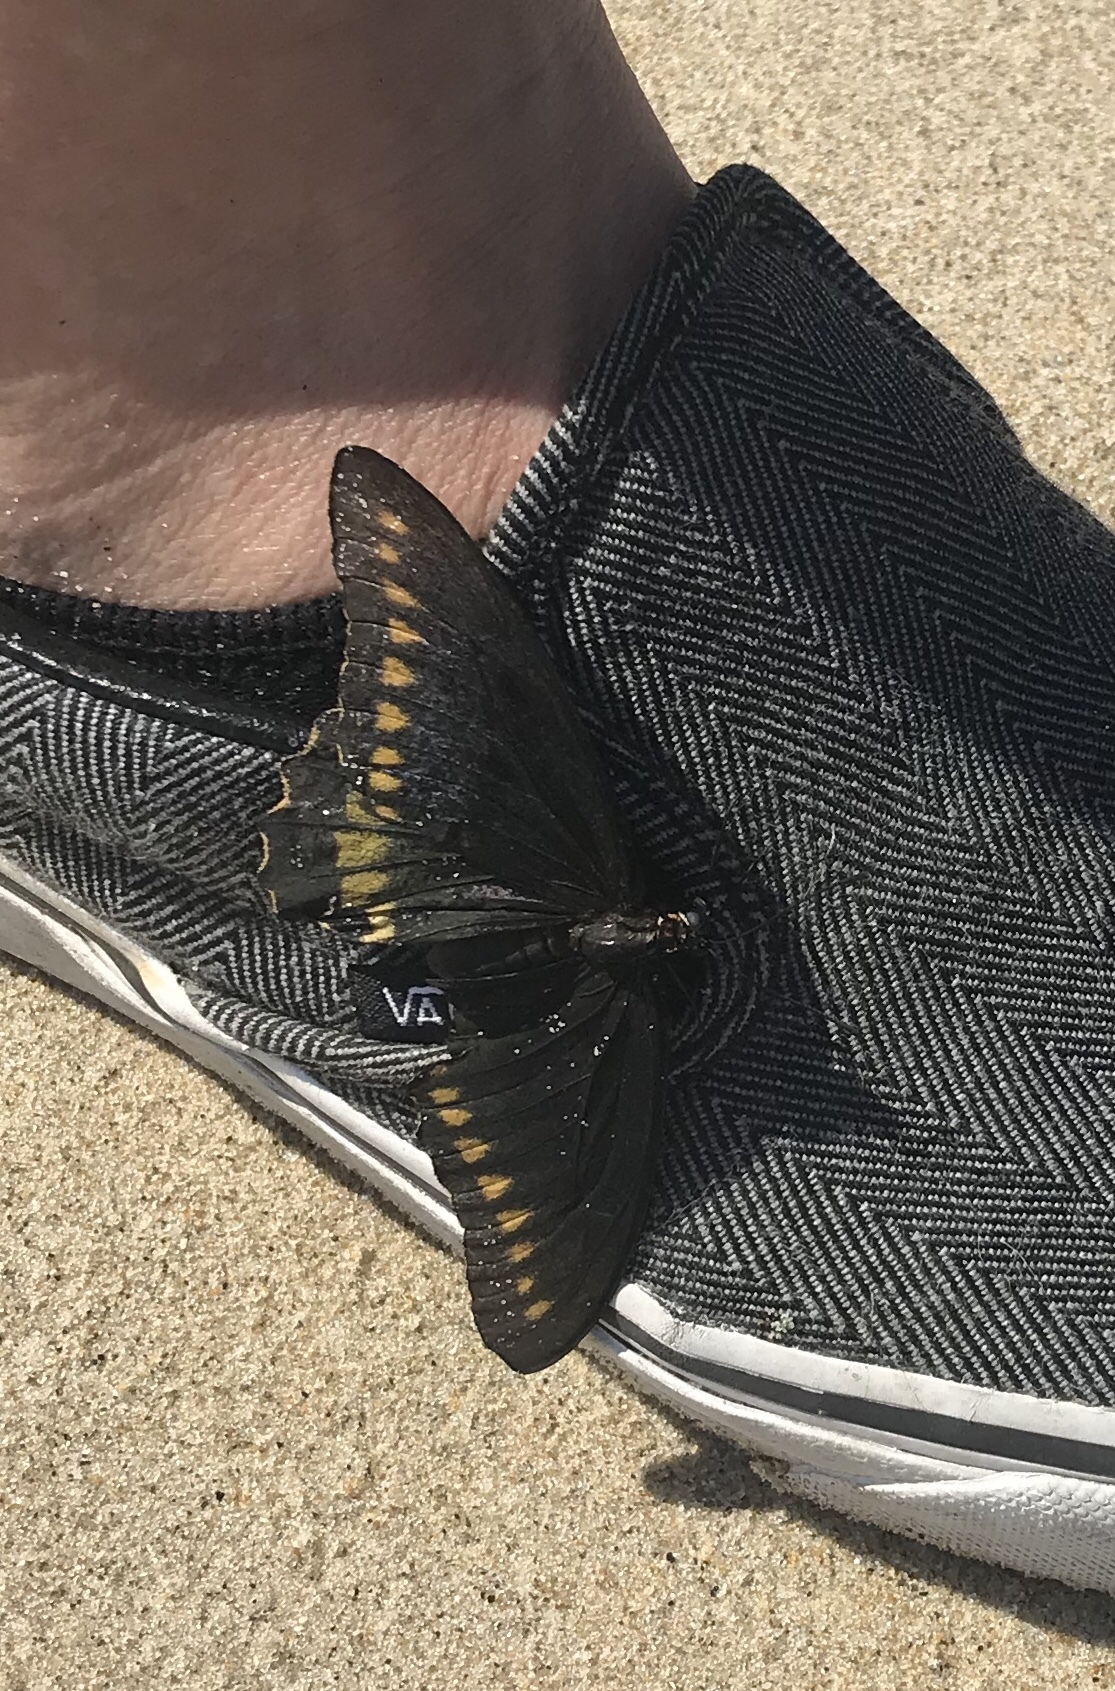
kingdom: Animalia
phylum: Arthropoda
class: Insecta
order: Lepidoptera
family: Papilionidae
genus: Battus
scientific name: Battus polydamas
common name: Polydamas swallowtail
